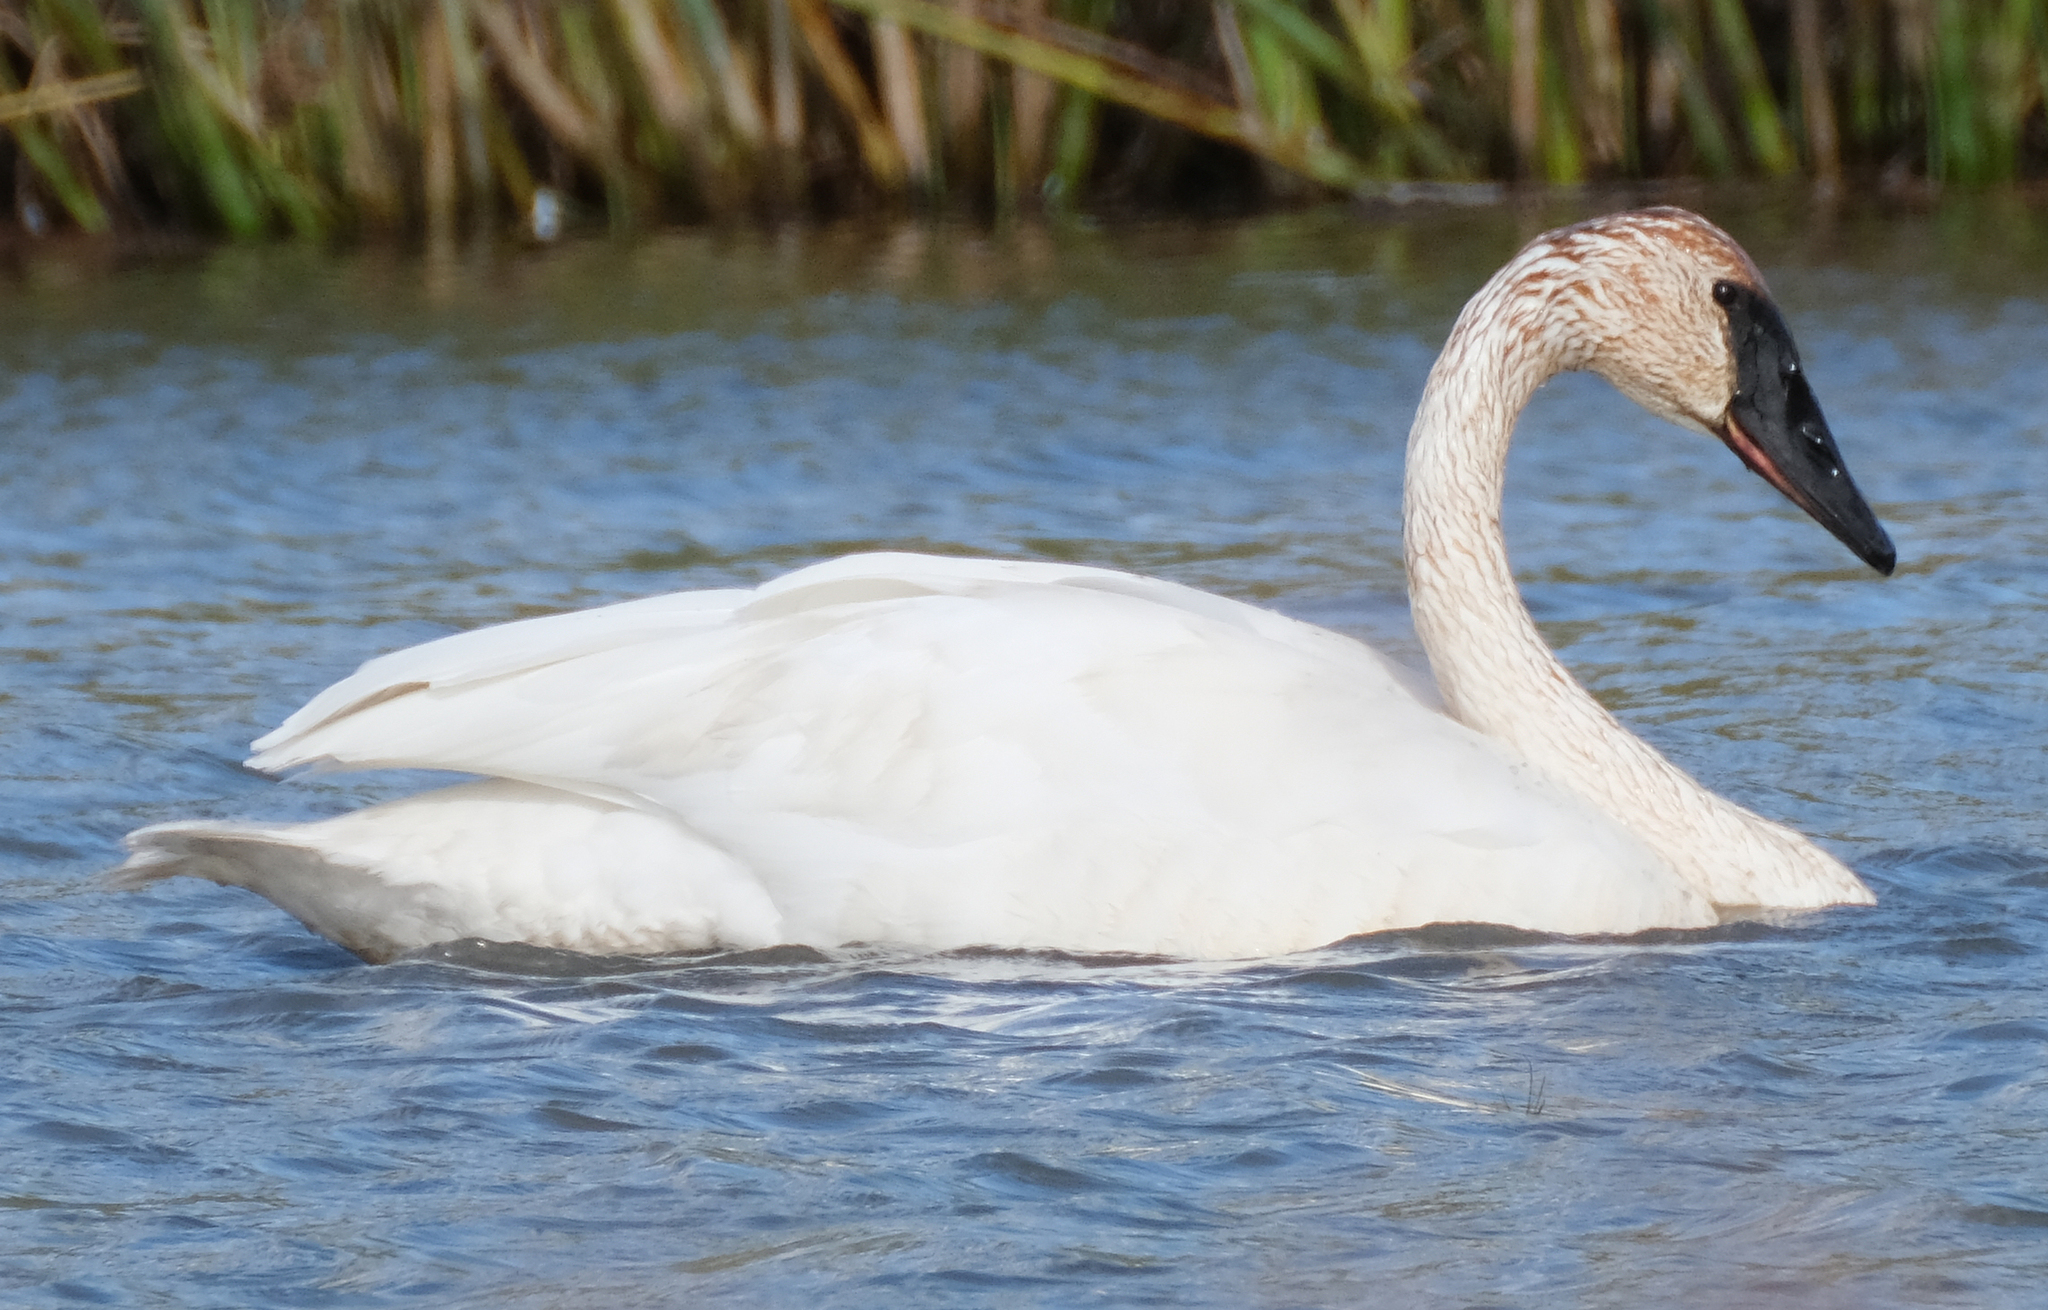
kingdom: Animalia
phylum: Chordata
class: Aves
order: Anseriformes
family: Anatidae
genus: Cygnus
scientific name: Cygnus buccinator
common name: Trumpeter swan
